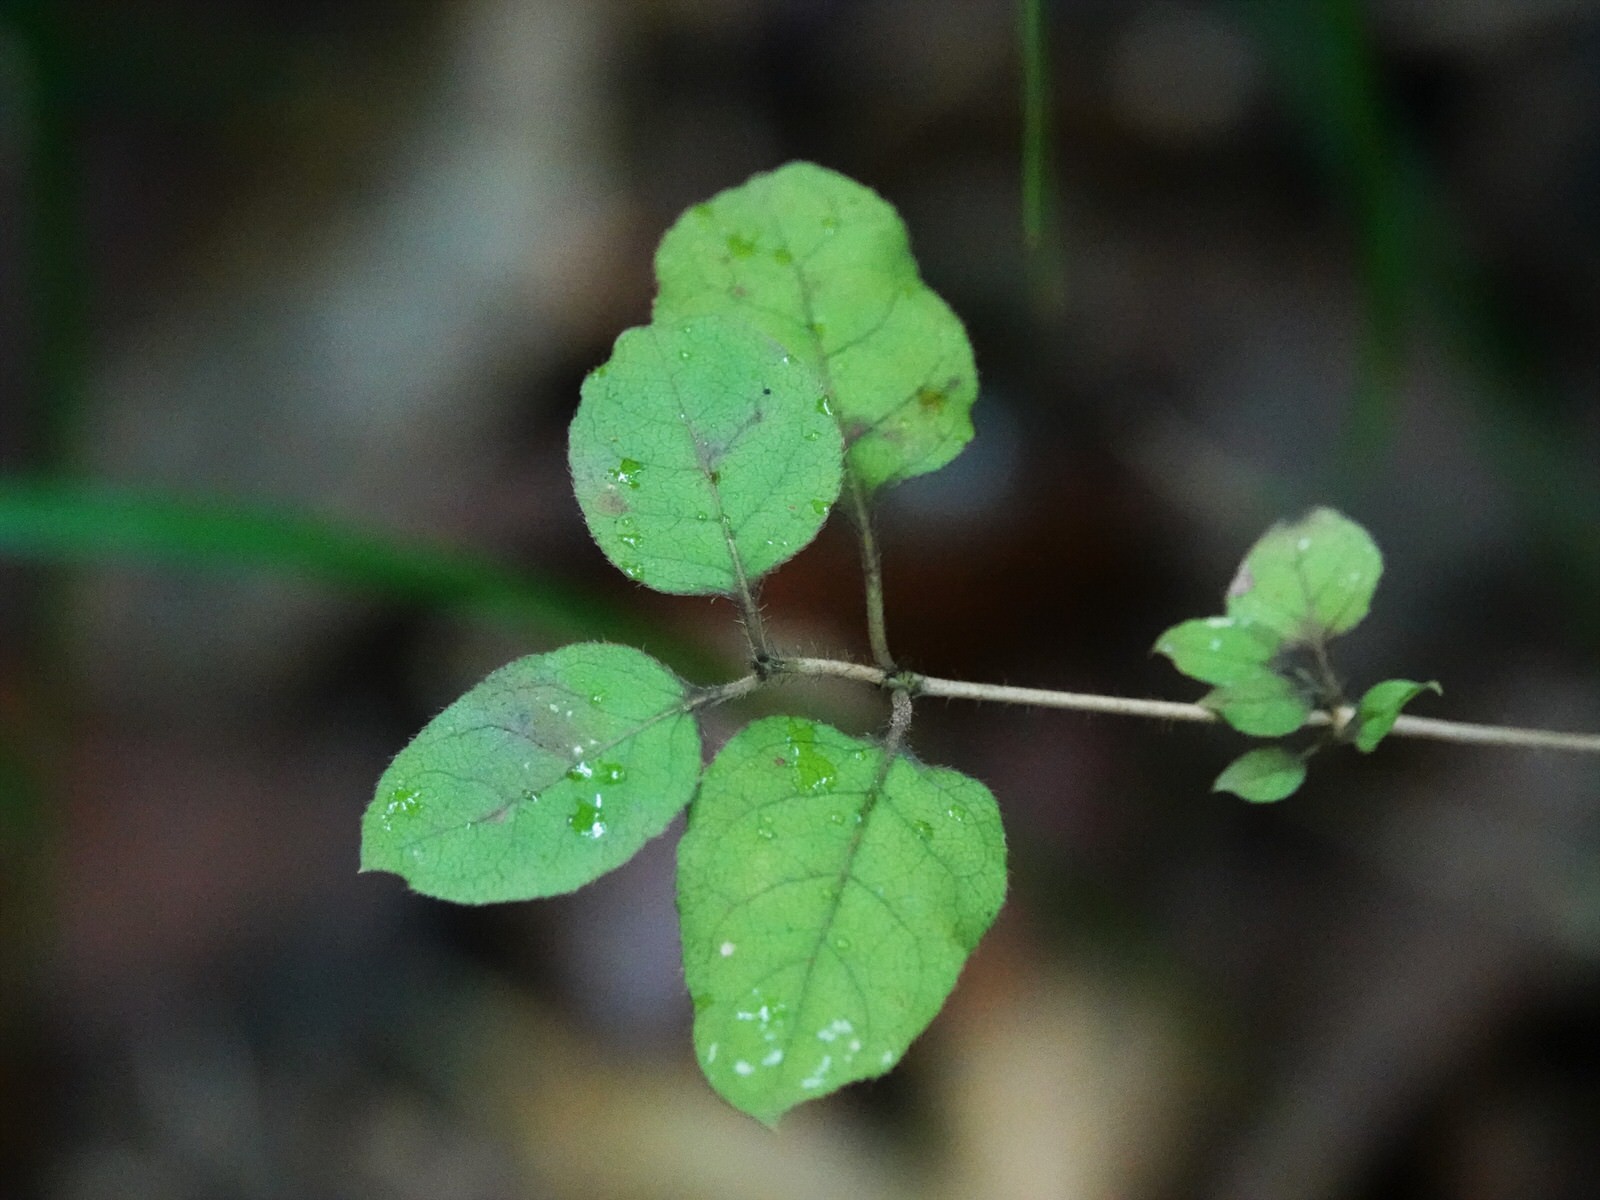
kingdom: Plantae
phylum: Tracheophyta
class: Magnoliopsida
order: Gentianales
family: Rubiaceae
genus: Coprosma
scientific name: Coprosma rotundifolia
